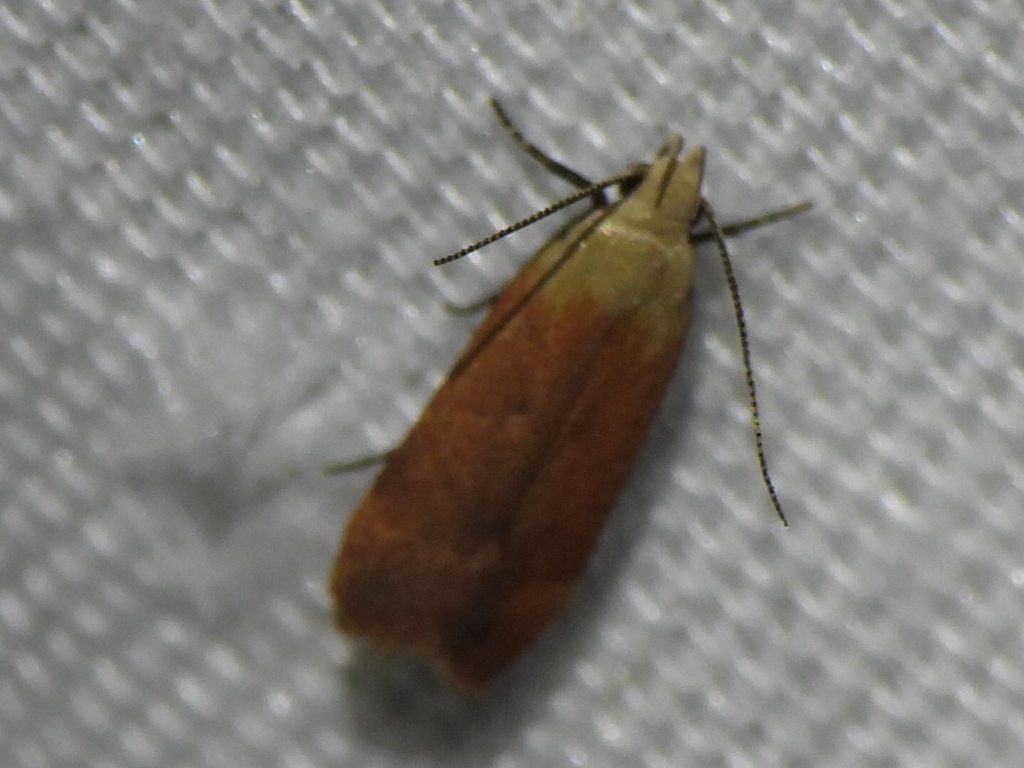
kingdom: Animalia
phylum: Arthropoda
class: Insecta
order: Lepidoptera
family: Gelechiidae
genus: Anacampsis
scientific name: Anacampsis fullonella
